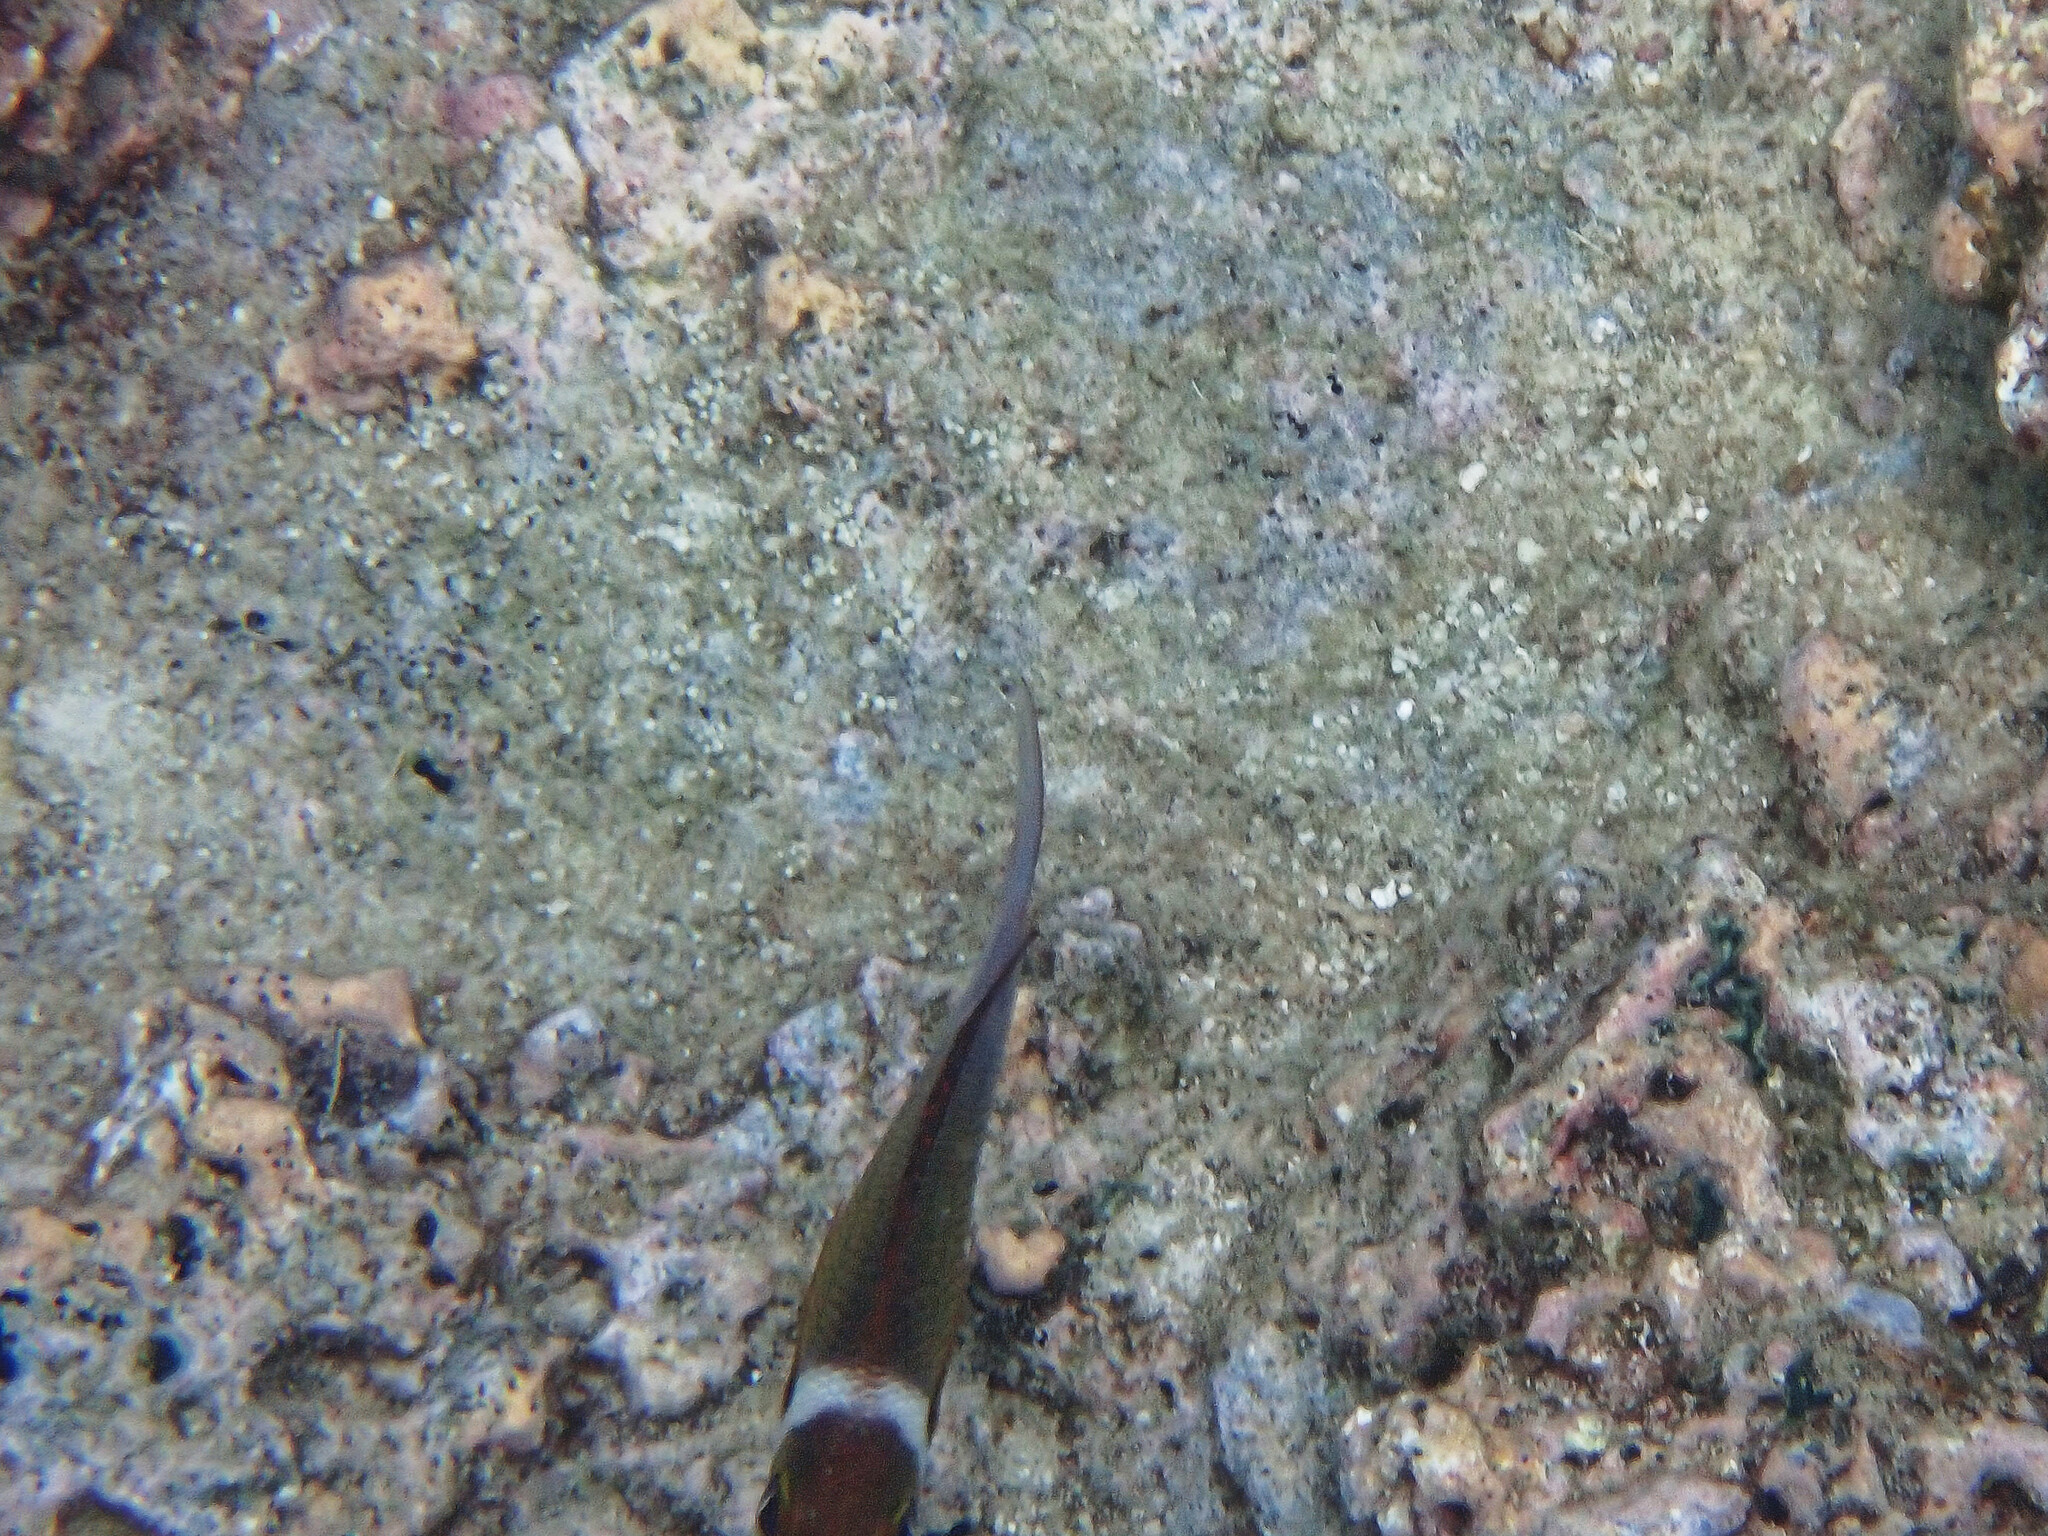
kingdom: Animalia
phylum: Chordata
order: Perciformes
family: Nemipteridae
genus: Scolopsis
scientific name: Scolopsis vosmeri
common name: Whitecheek monocle bream
